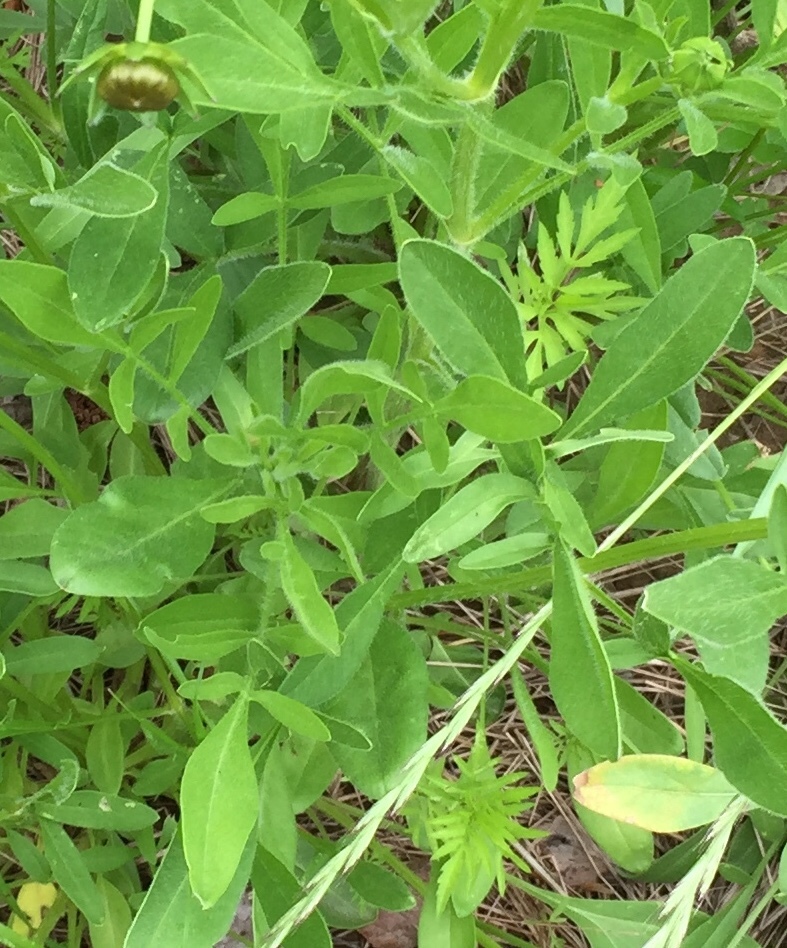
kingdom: Plantae
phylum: Tracheophyta
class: Magnoliopsida
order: Asterales
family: Asteraceae
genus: Coreopsis
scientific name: Coreopsis lanceolata
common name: Garden coreopsis
